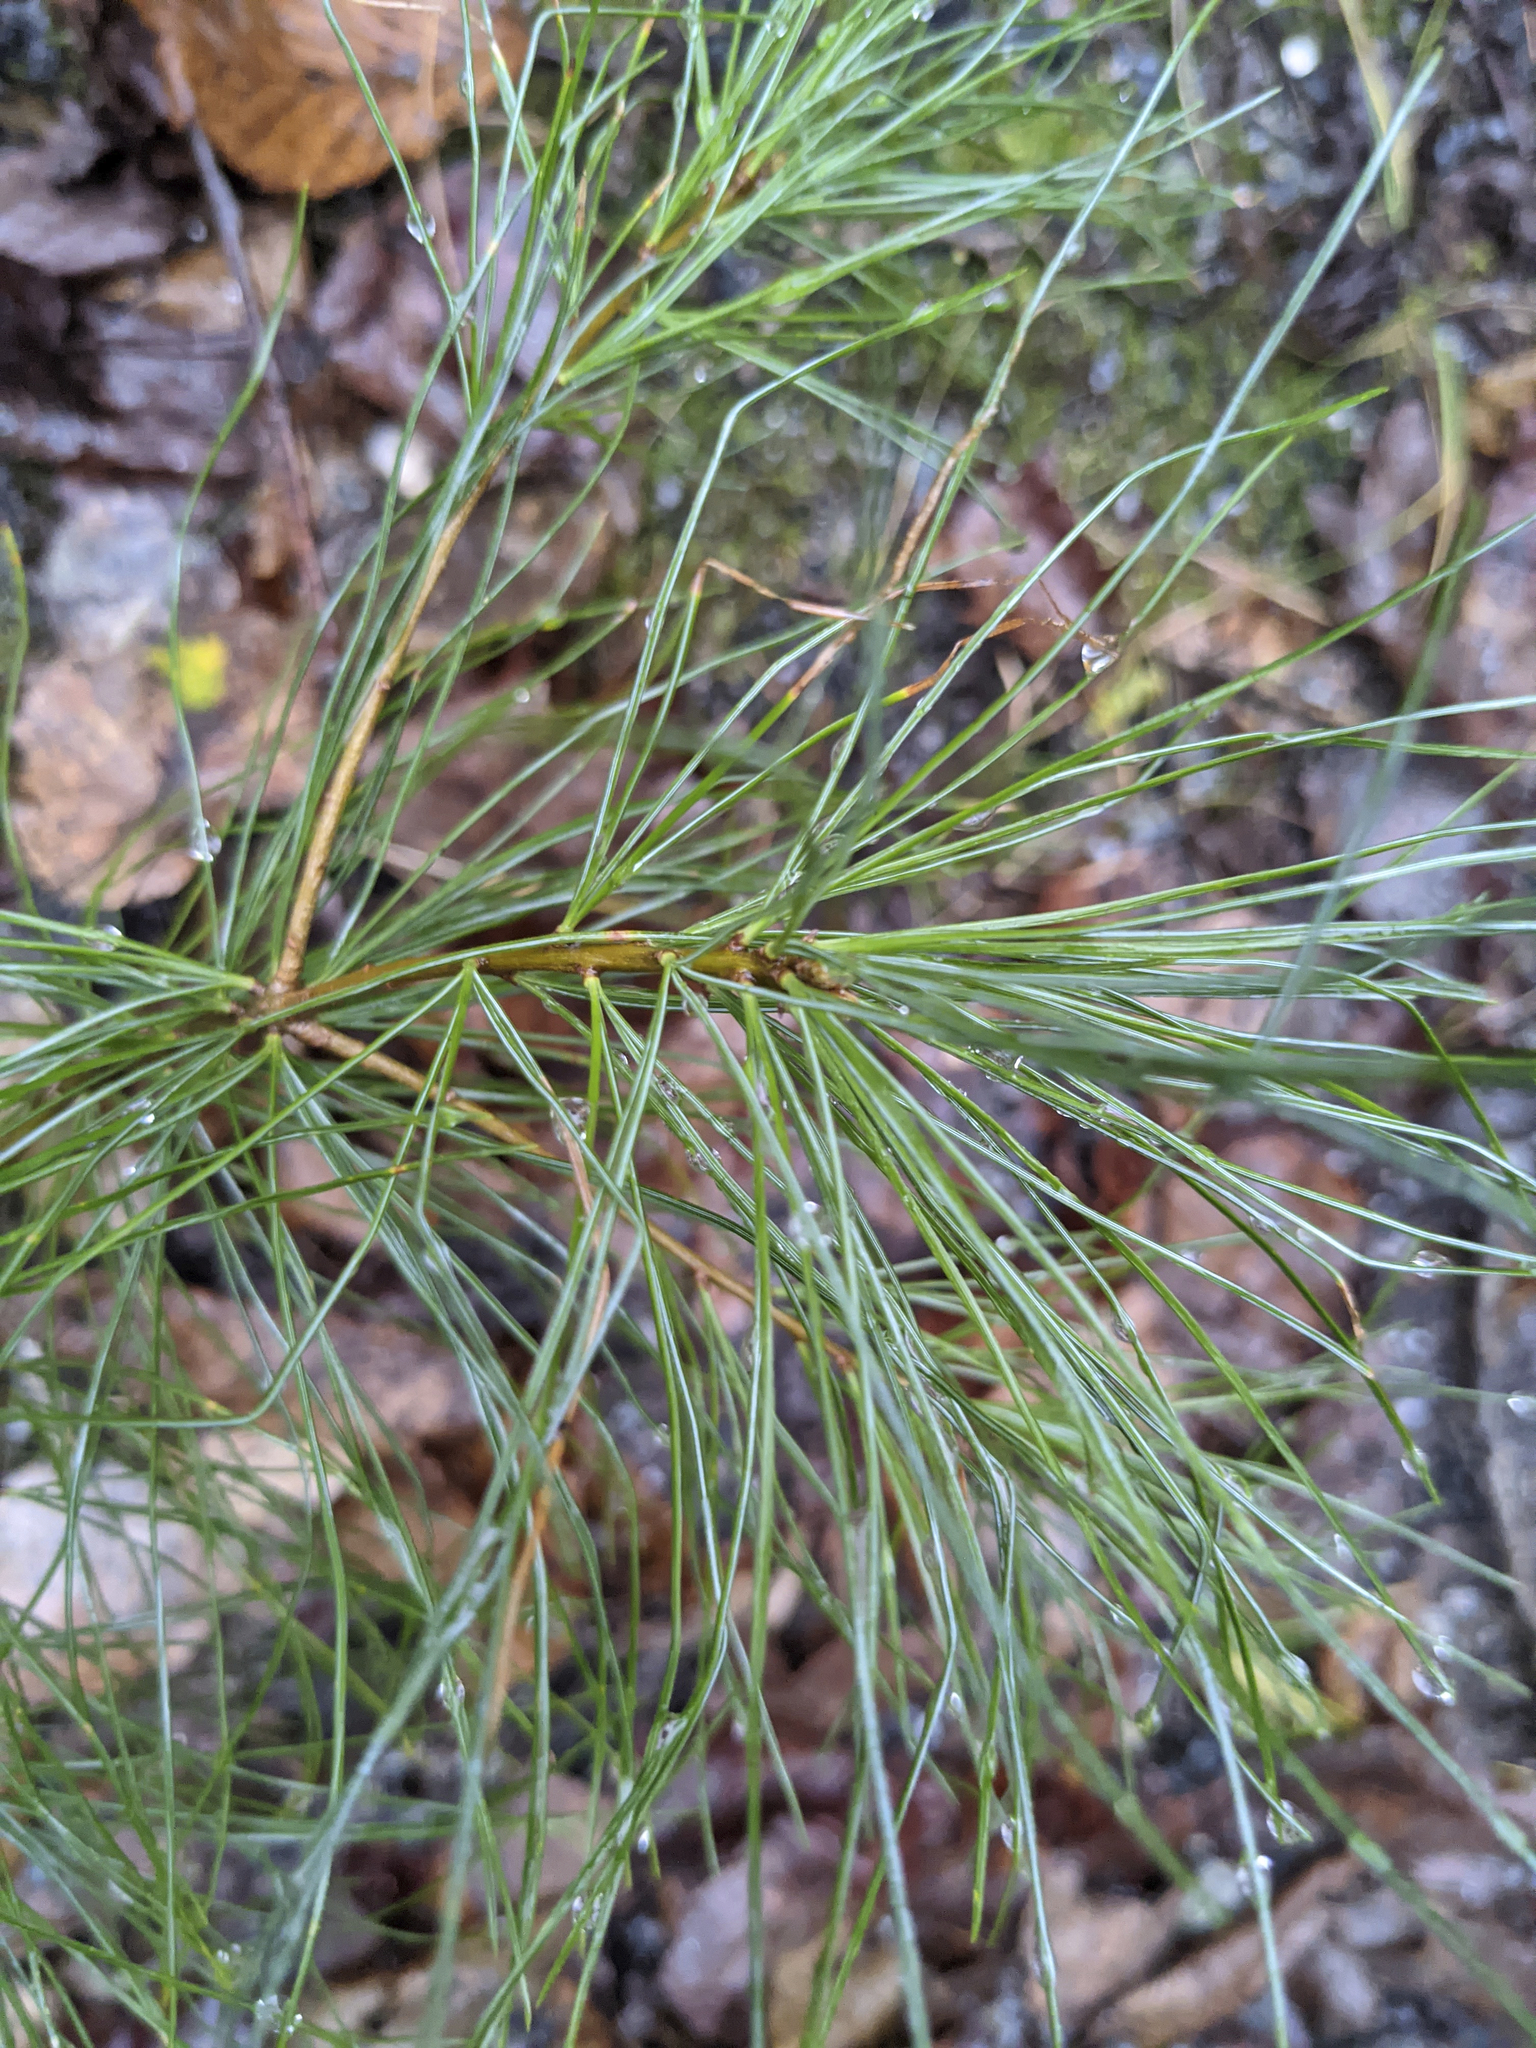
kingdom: Plantae
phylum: Tracheophyta
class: Pinopsida
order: Pinales
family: Pinaceae
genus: Pinus
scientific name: Pinus strobus
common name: Weymouth pine
